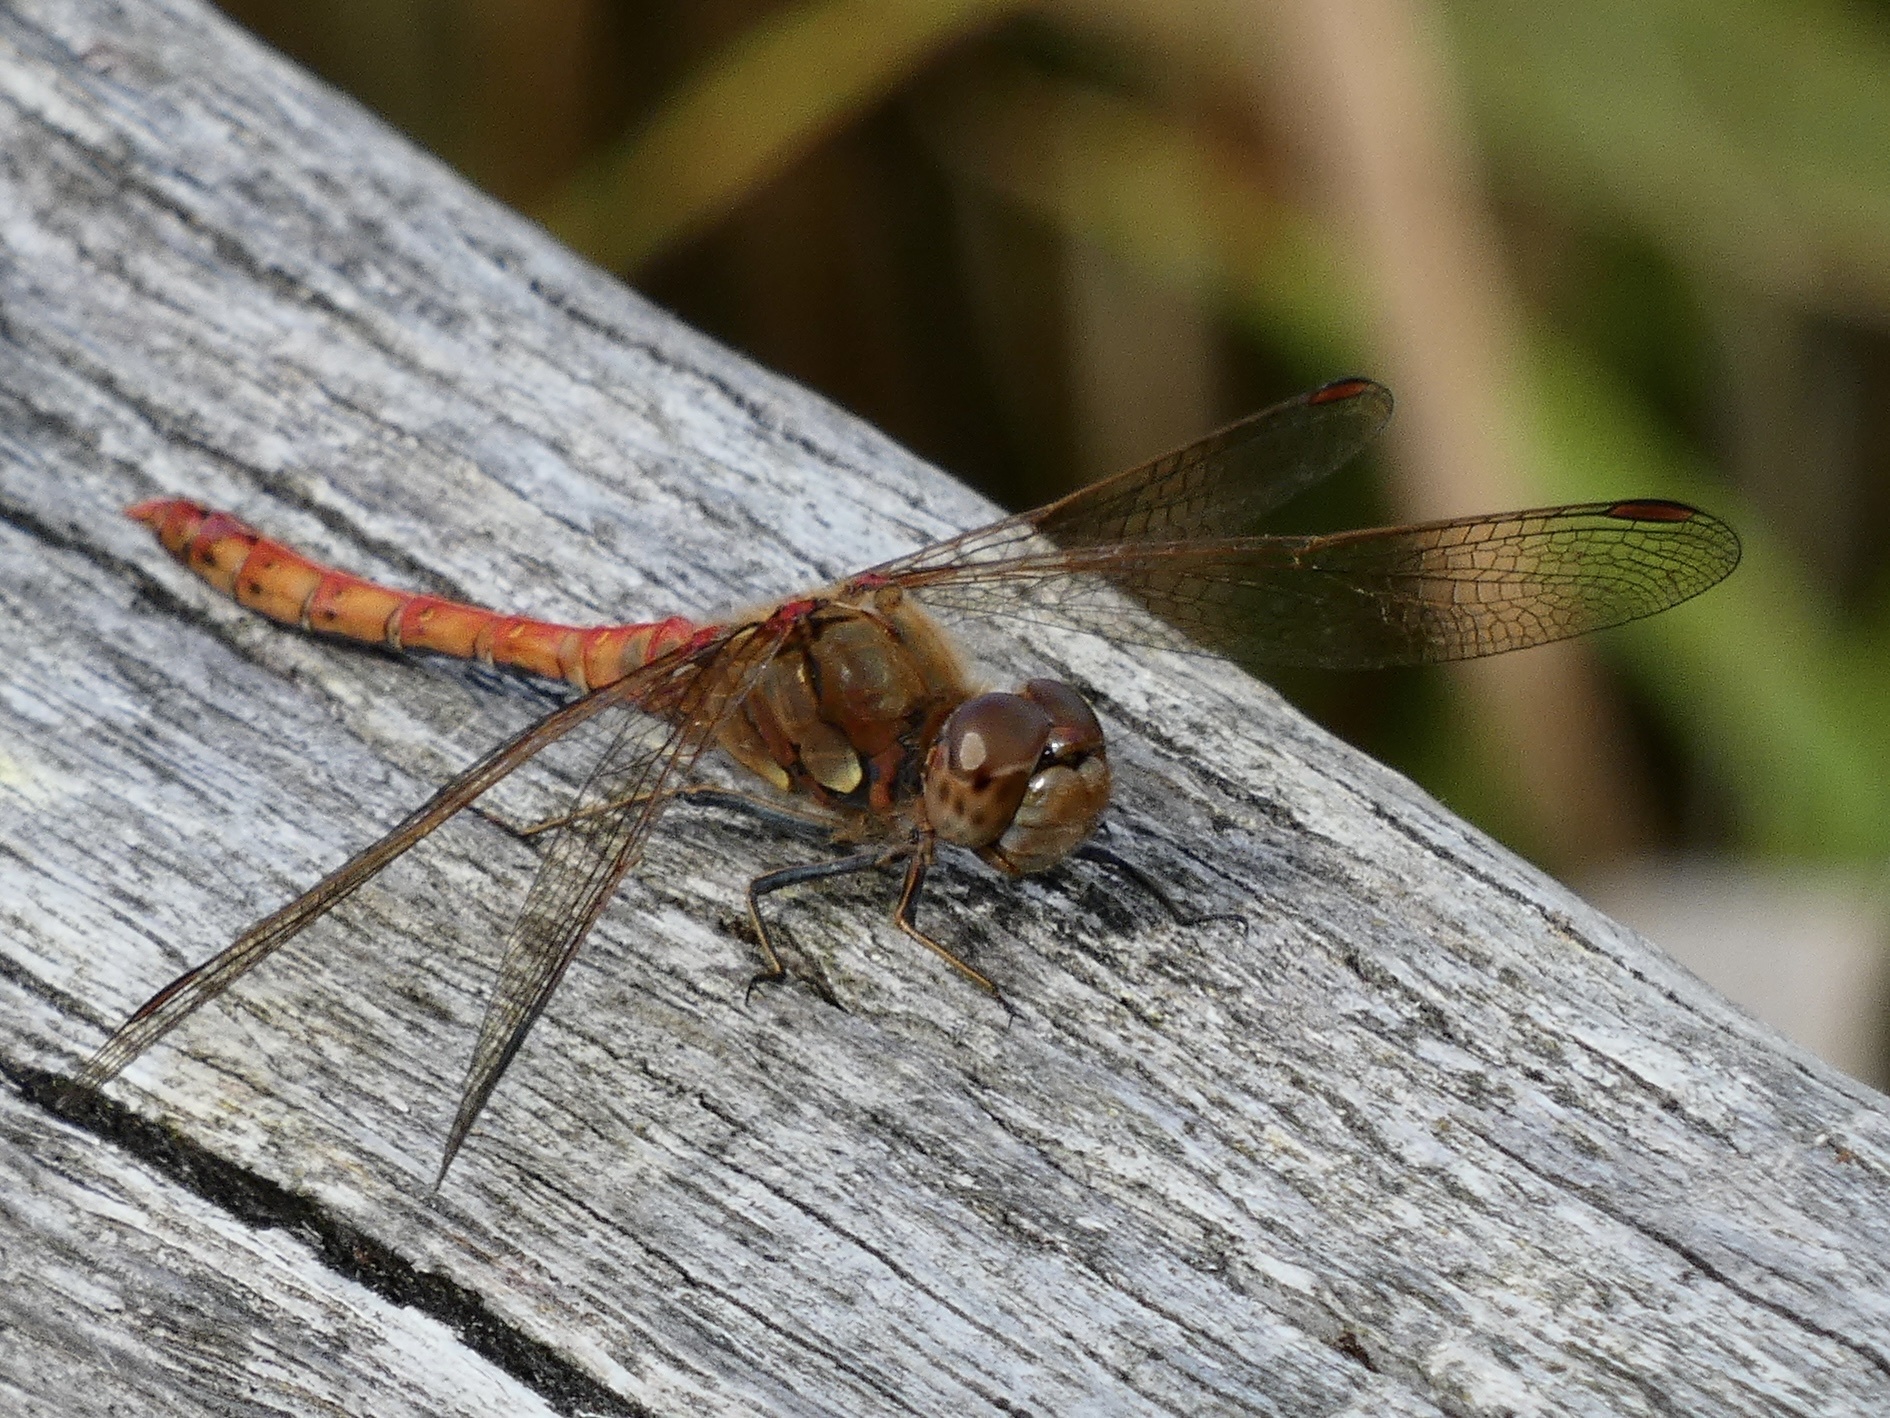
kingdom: Animalia
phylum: Arthropoda
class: Insecta
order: Odonata
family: Libellulidae
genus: Sympetrum
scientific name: Sympetrum striolatum
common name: Common darter
